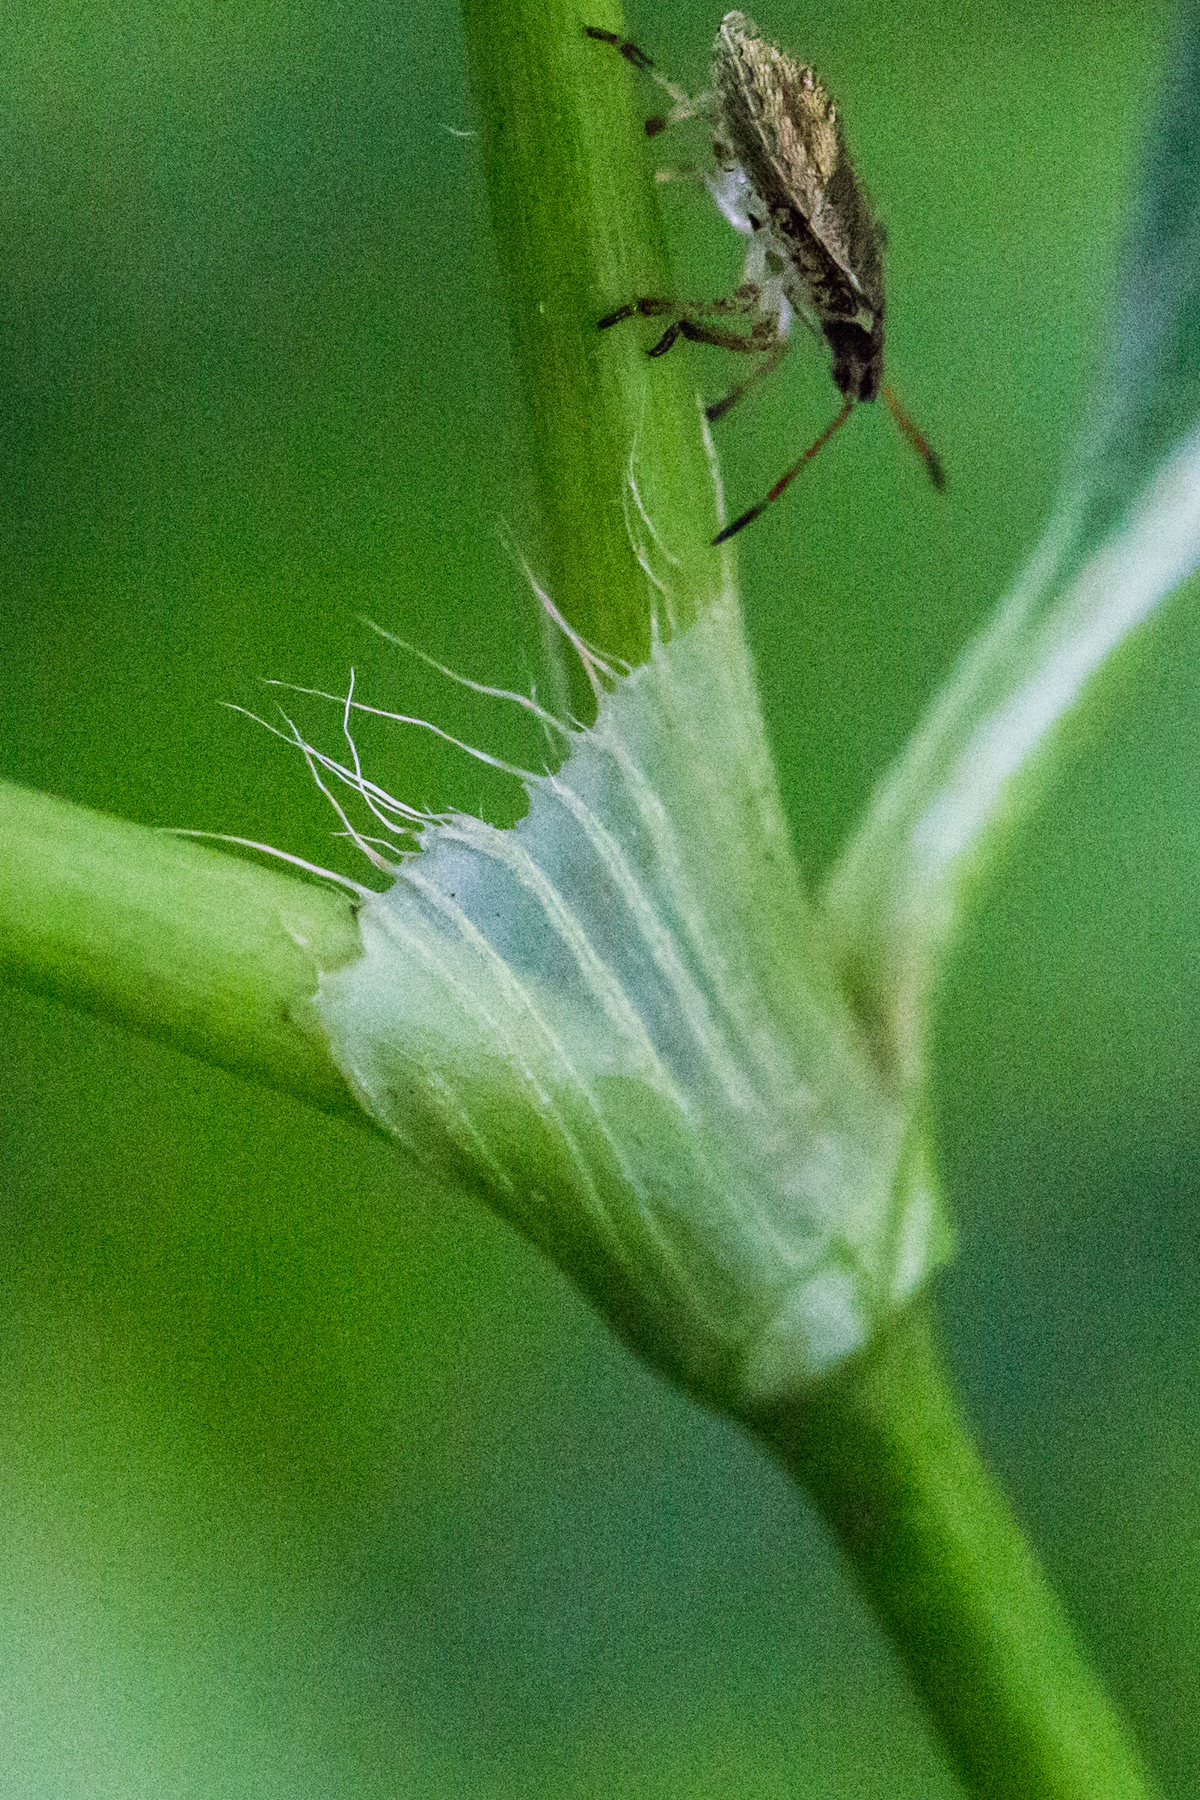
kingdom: Plantae
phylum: Tracheophyta
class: Magnoliopsida
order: Caryophyllales
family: Polygonaceae
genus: Persicaria
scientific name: Persicaria maculosa
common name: Redshank
